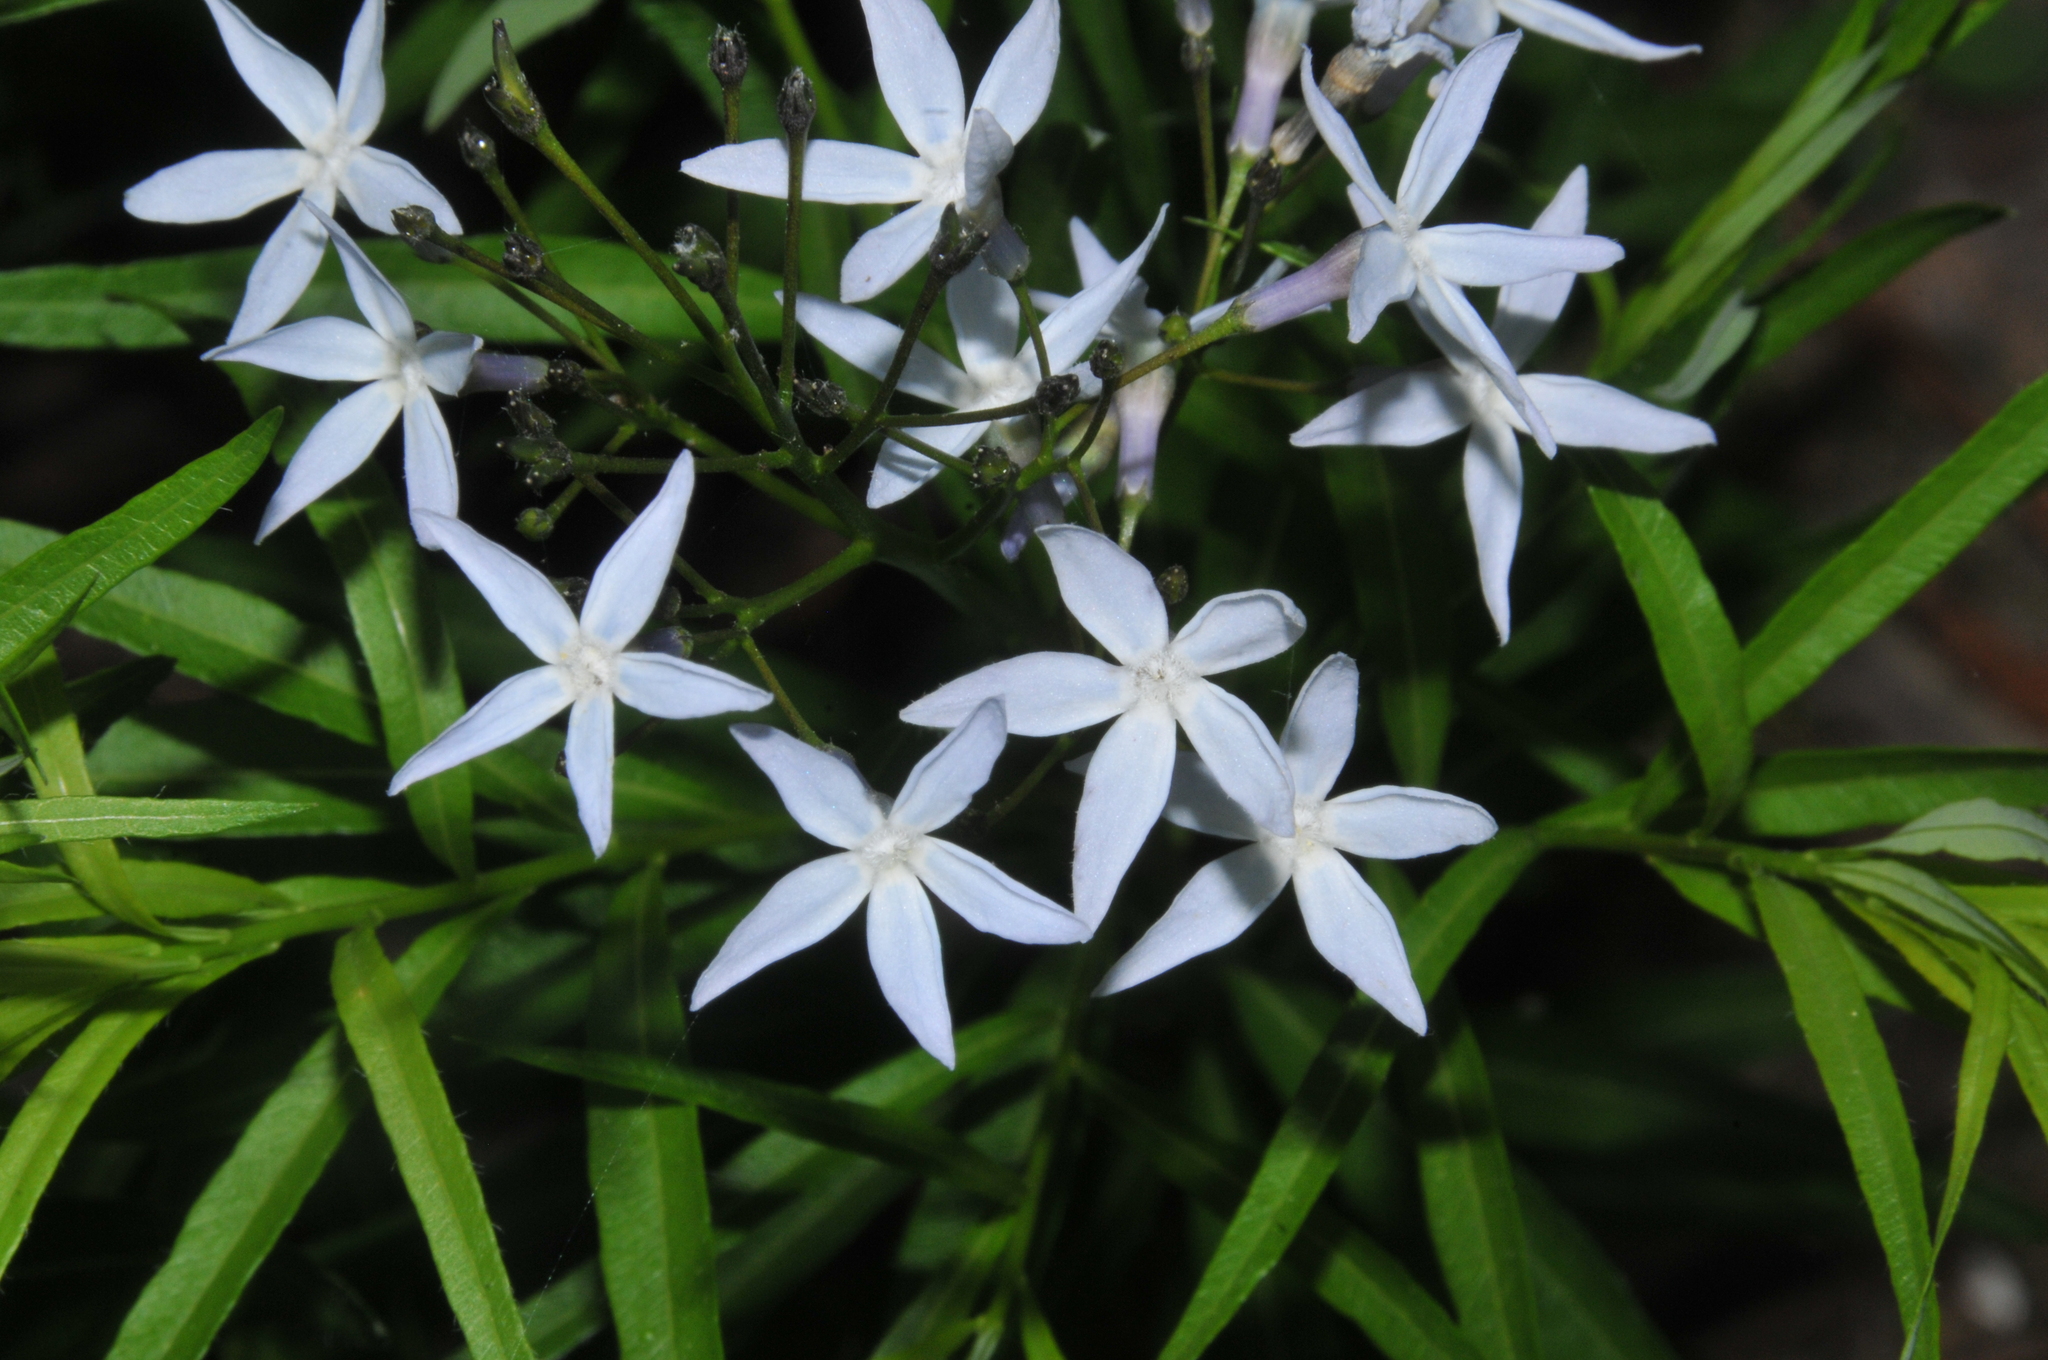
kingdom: Plantae
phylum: Tracheophyta
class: Magnoliopsida
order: Gentianales
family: Apocynaceae
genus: Amsonia
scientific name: Amsonia ciliata
